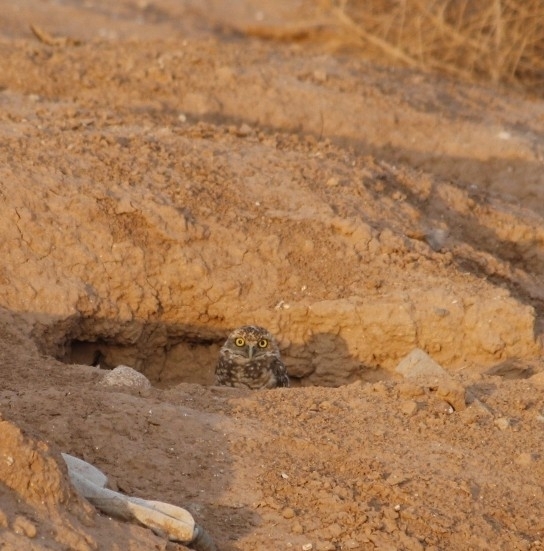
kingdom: Animalia
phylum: Chordata
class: Aves
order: Strigiformes
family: Strigidae
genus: Athene
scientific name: Athene cunicularia
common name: Burrowing owl
